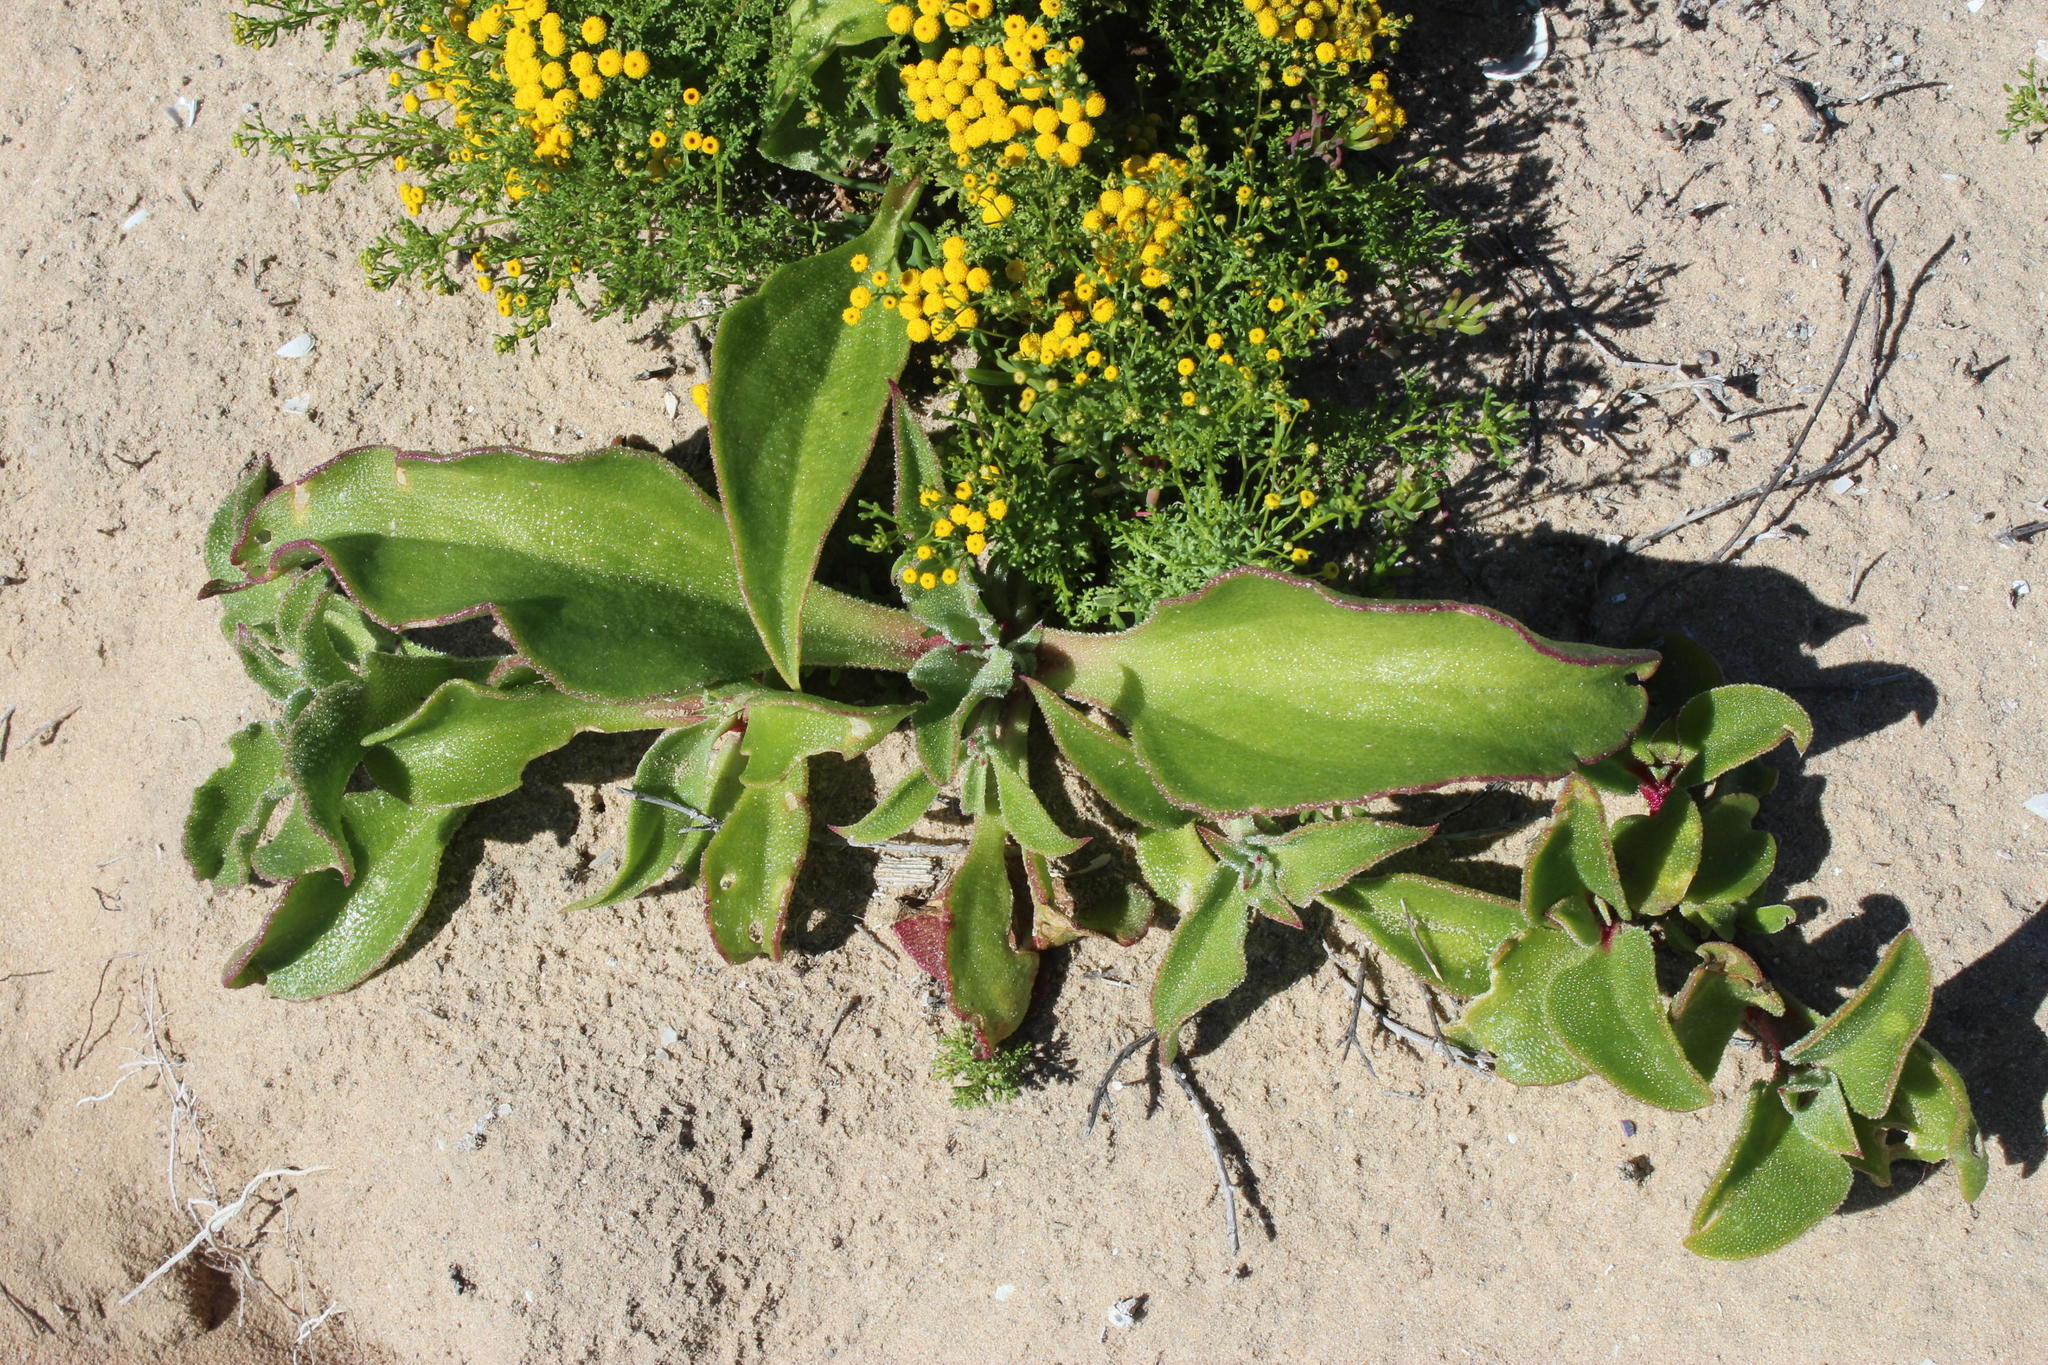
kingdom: Plantae
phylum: Tracheophyta
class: Magnoliopsida
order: Caryophyllales
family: Aizoaceae
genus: Mesembryanthemum
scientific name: Mesembryanthemum guerichianum
